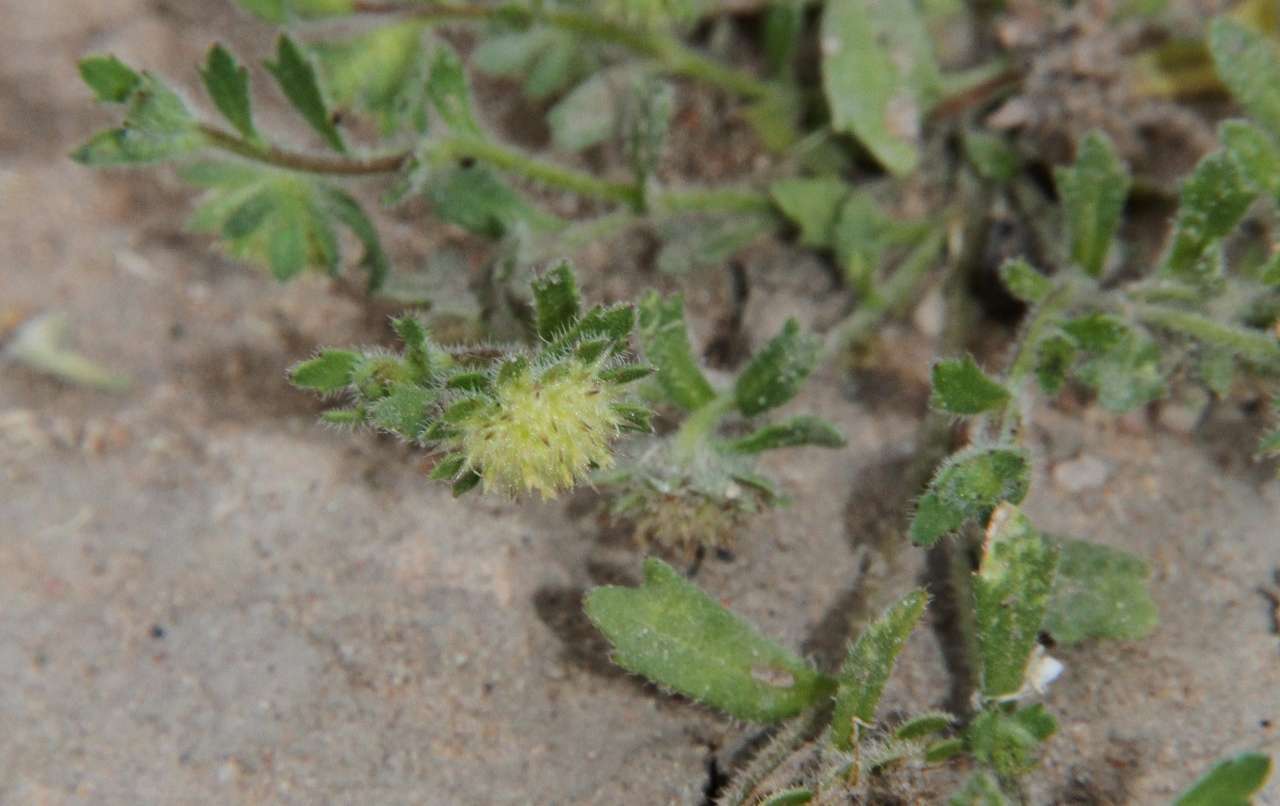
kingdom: Plantae
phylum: Tracheophyta
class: Magnoliopsida
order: Asterales
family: Asteraceae
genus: Calotis
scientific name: Calotis hispidula
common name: Bogan-flea
